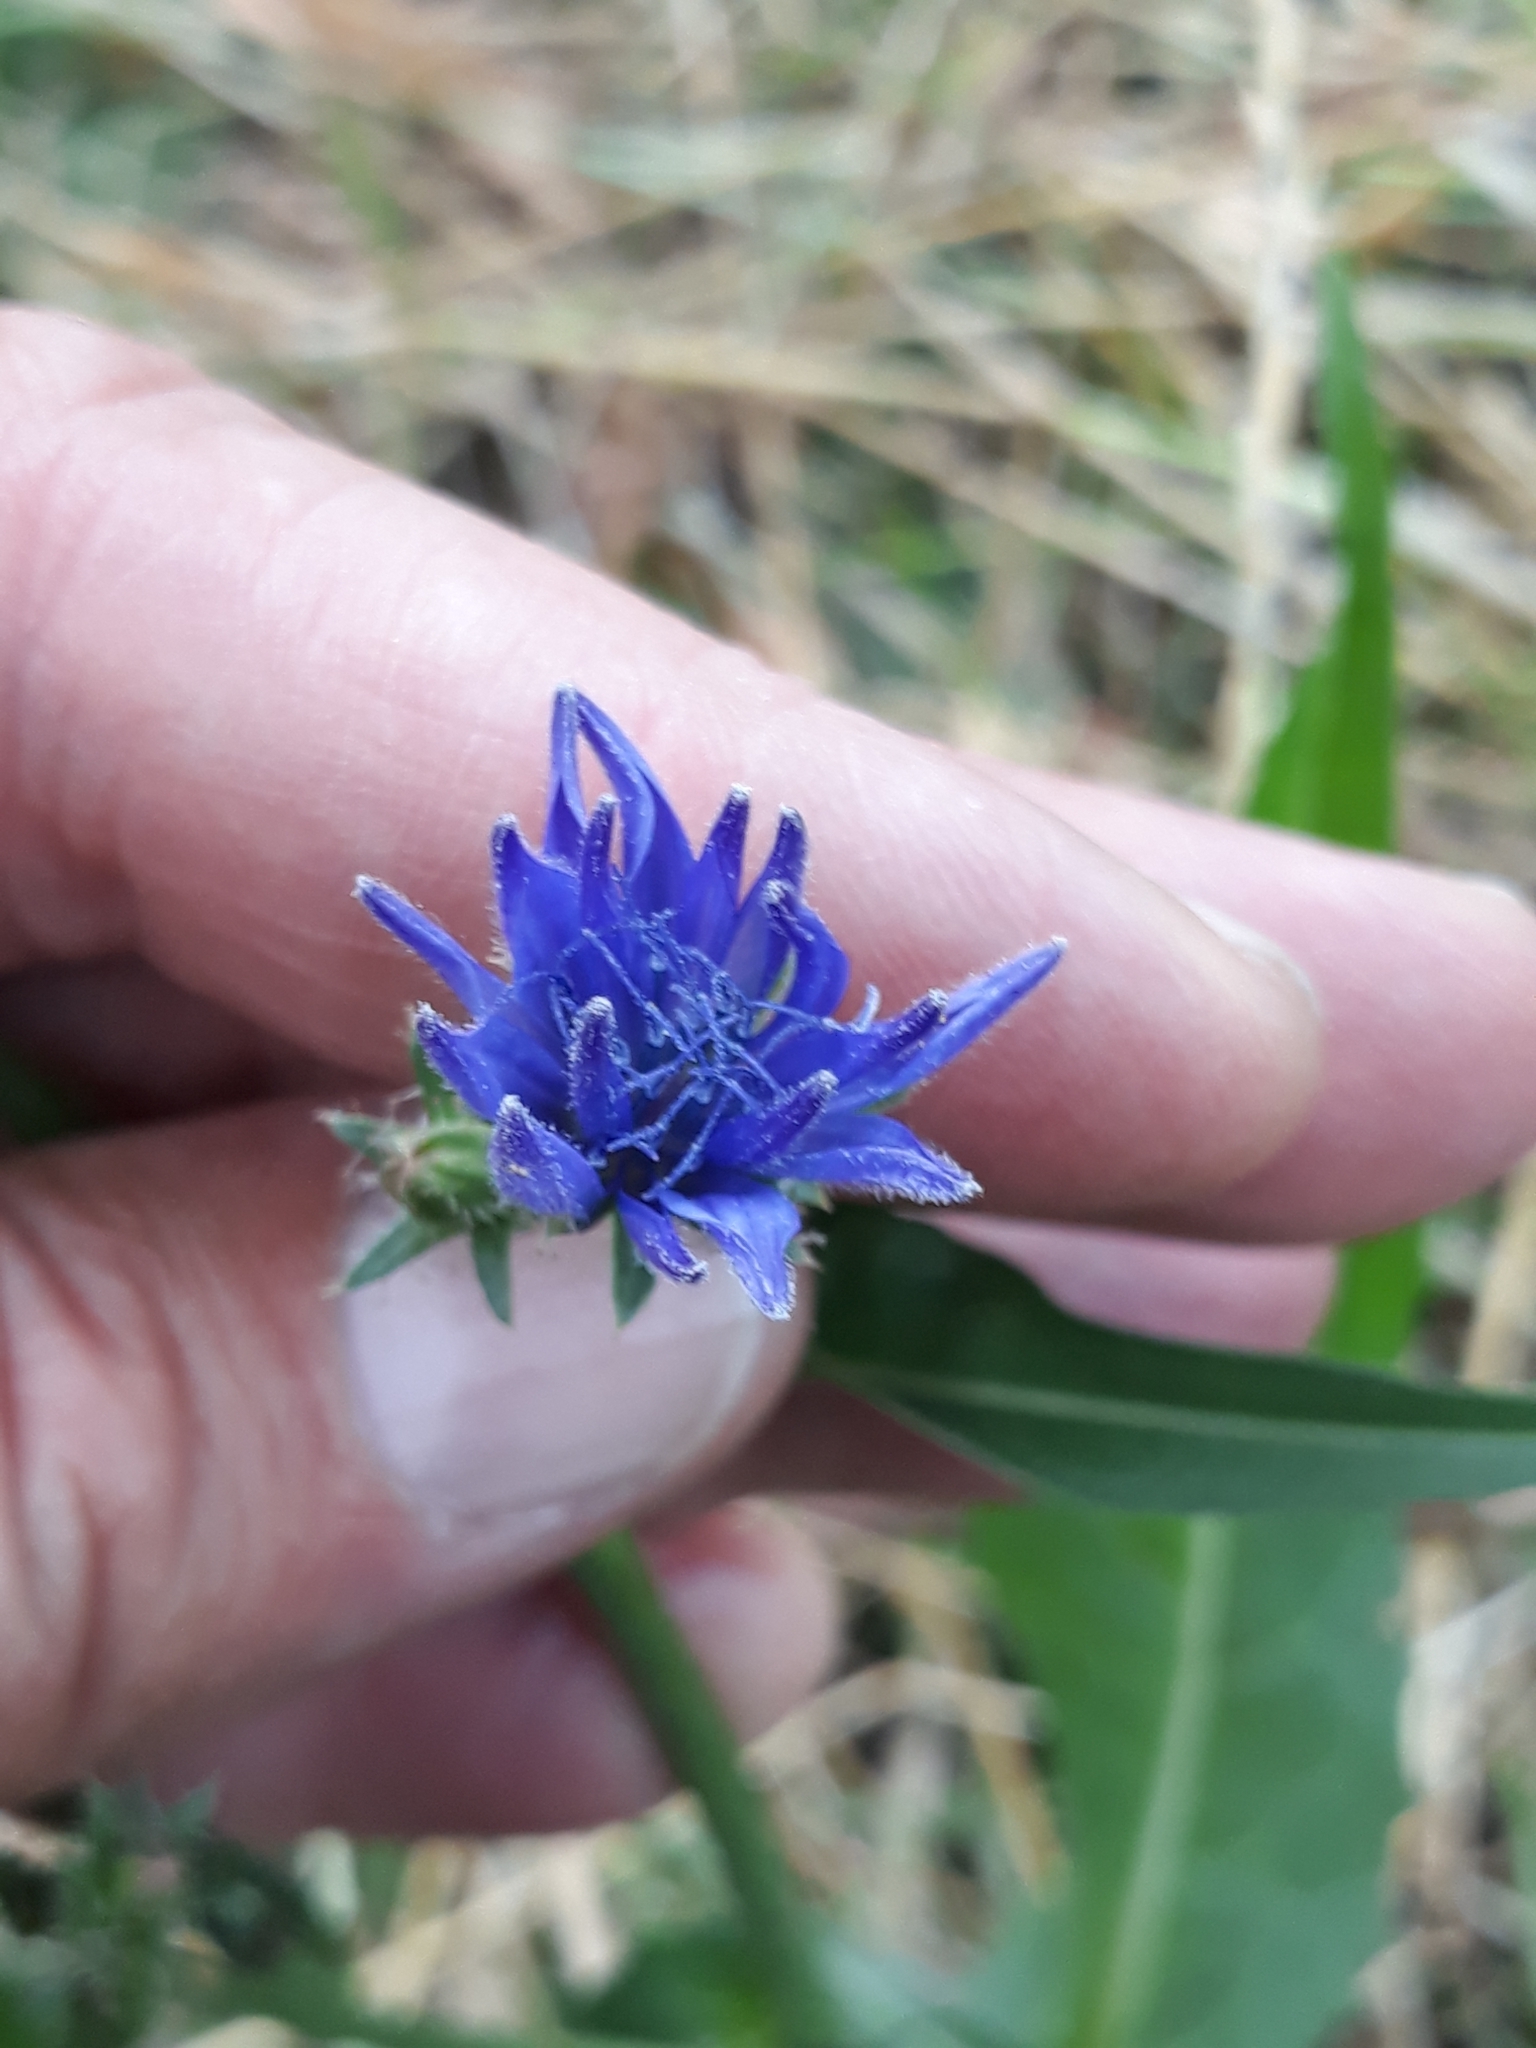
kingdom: Plantae
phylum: Tracheophyta
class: Magnoliopsida
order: Asterales
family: Asteraceae
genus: Cichorium
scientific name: Cichorium intybus
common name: Chicory
